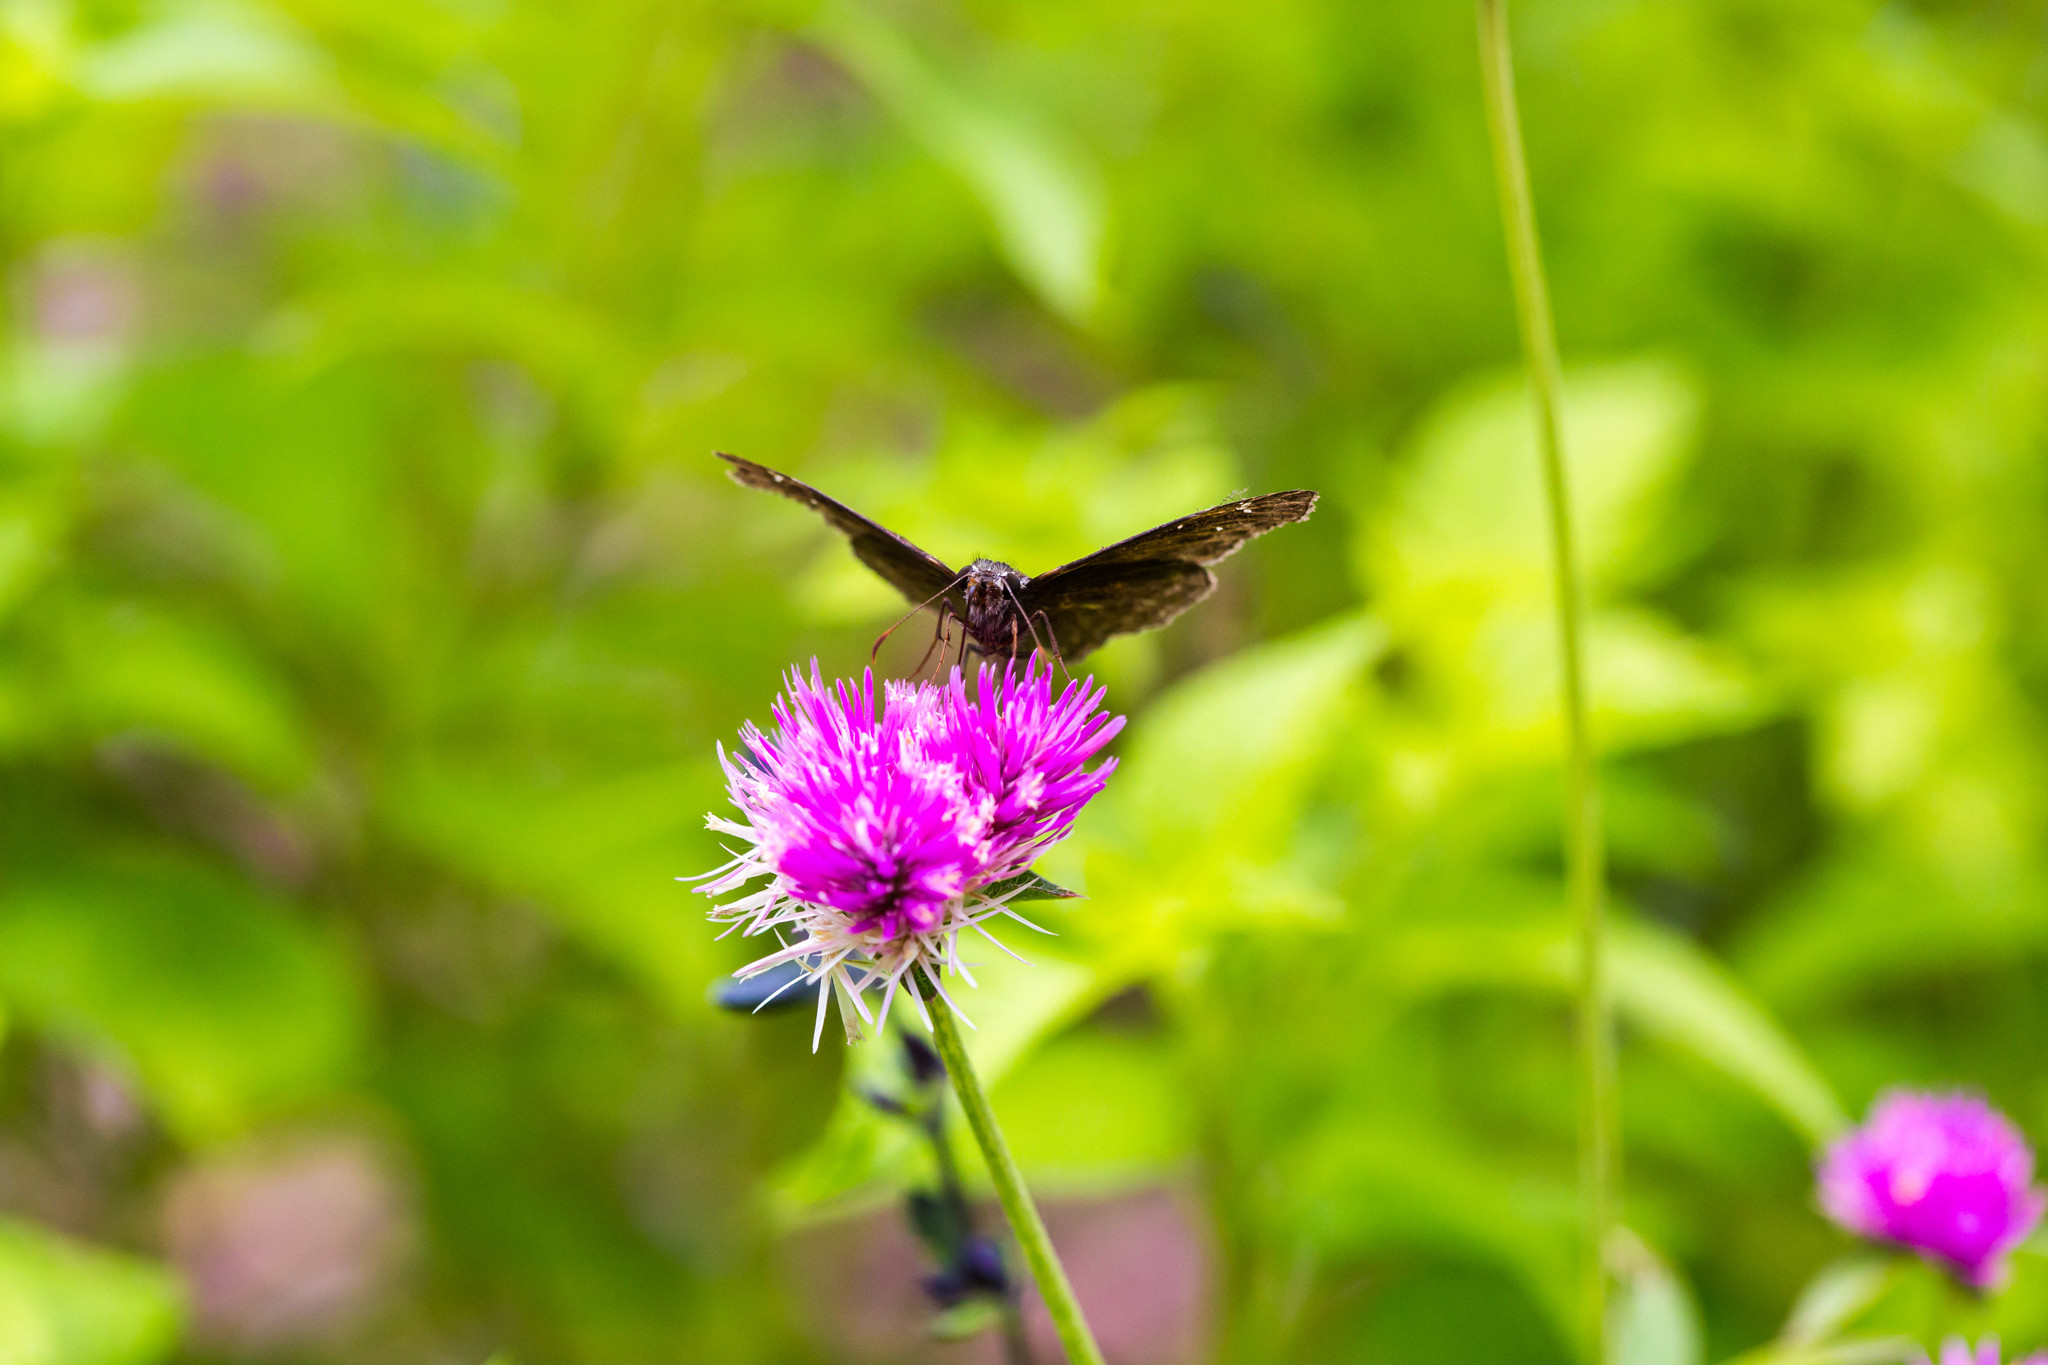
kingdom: Animalia
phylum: Arthropoda
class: Insecta
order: Lepidoptera
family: Hesperiidae
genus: Erynnis
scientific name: Erynnis horatius
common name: Horace's duskywing
